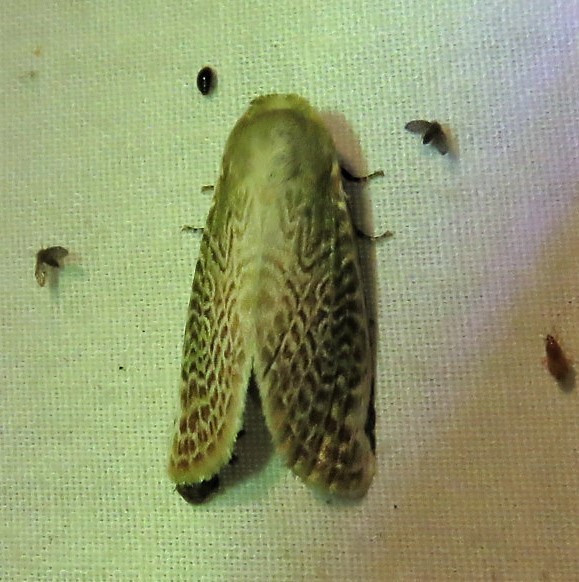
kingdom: Animalia
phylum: Arthropoda
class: Insecta
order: Lepidoptera
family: Noctuidae
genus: Oxythres
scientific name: Oxythres splendens
